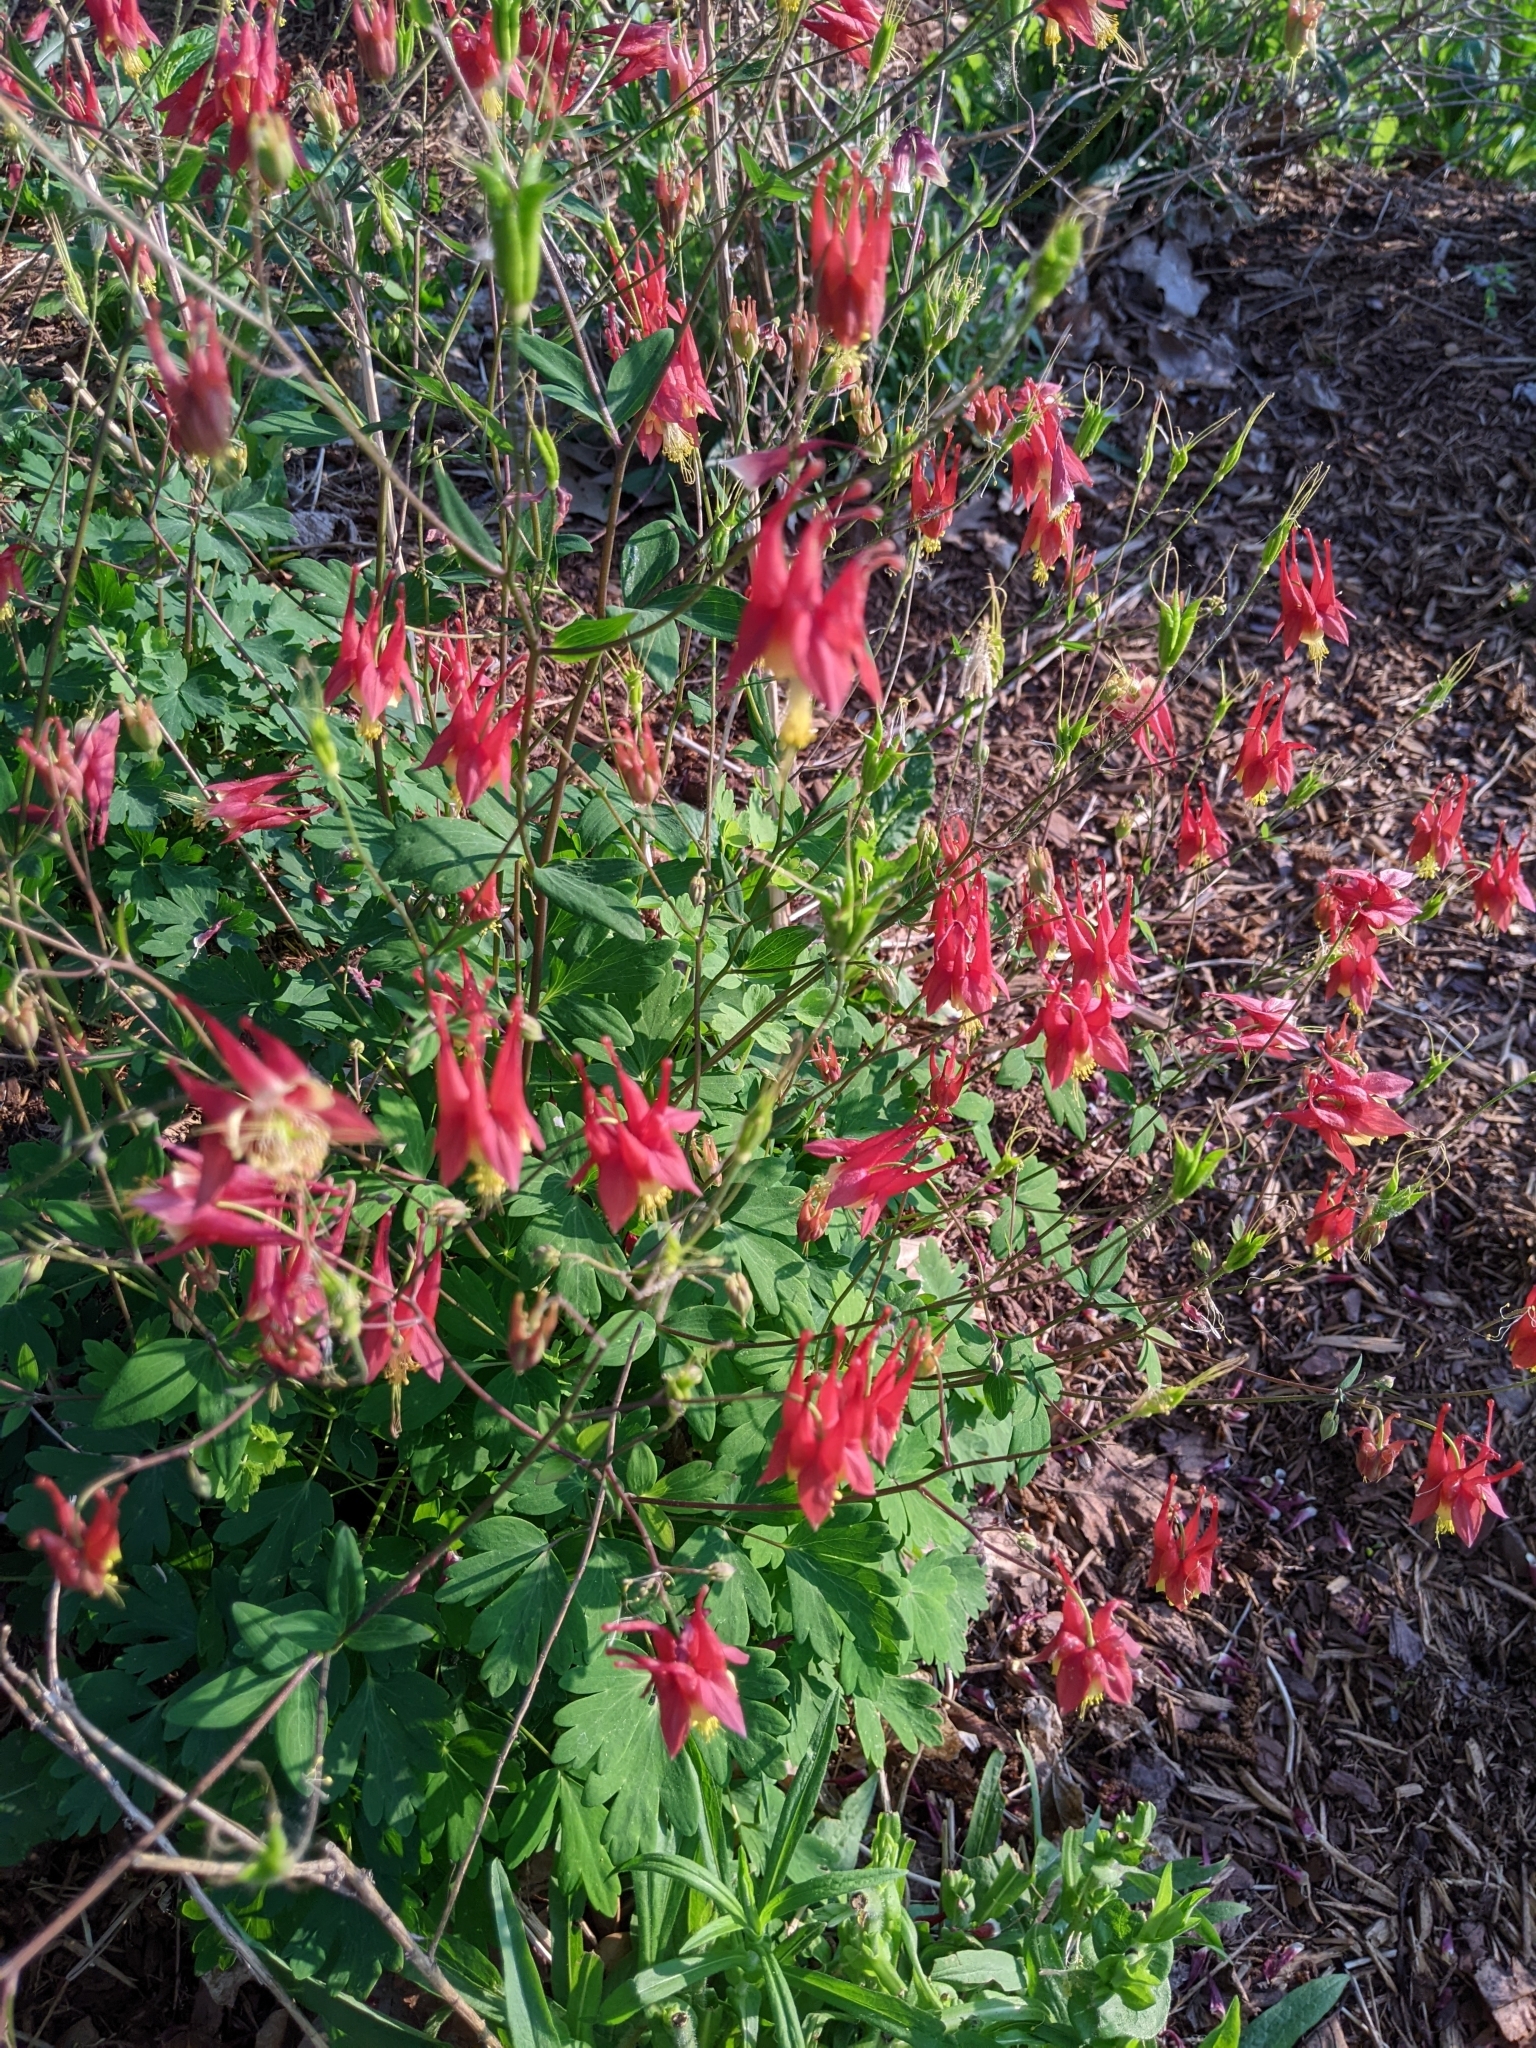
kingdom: Plantae
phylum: Tracheophyta
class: Magnoliopsida
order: Ranunculales
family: Ranunculaceae
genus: Aquilegia
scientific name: Aquilegia canadensis
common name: American columbine
